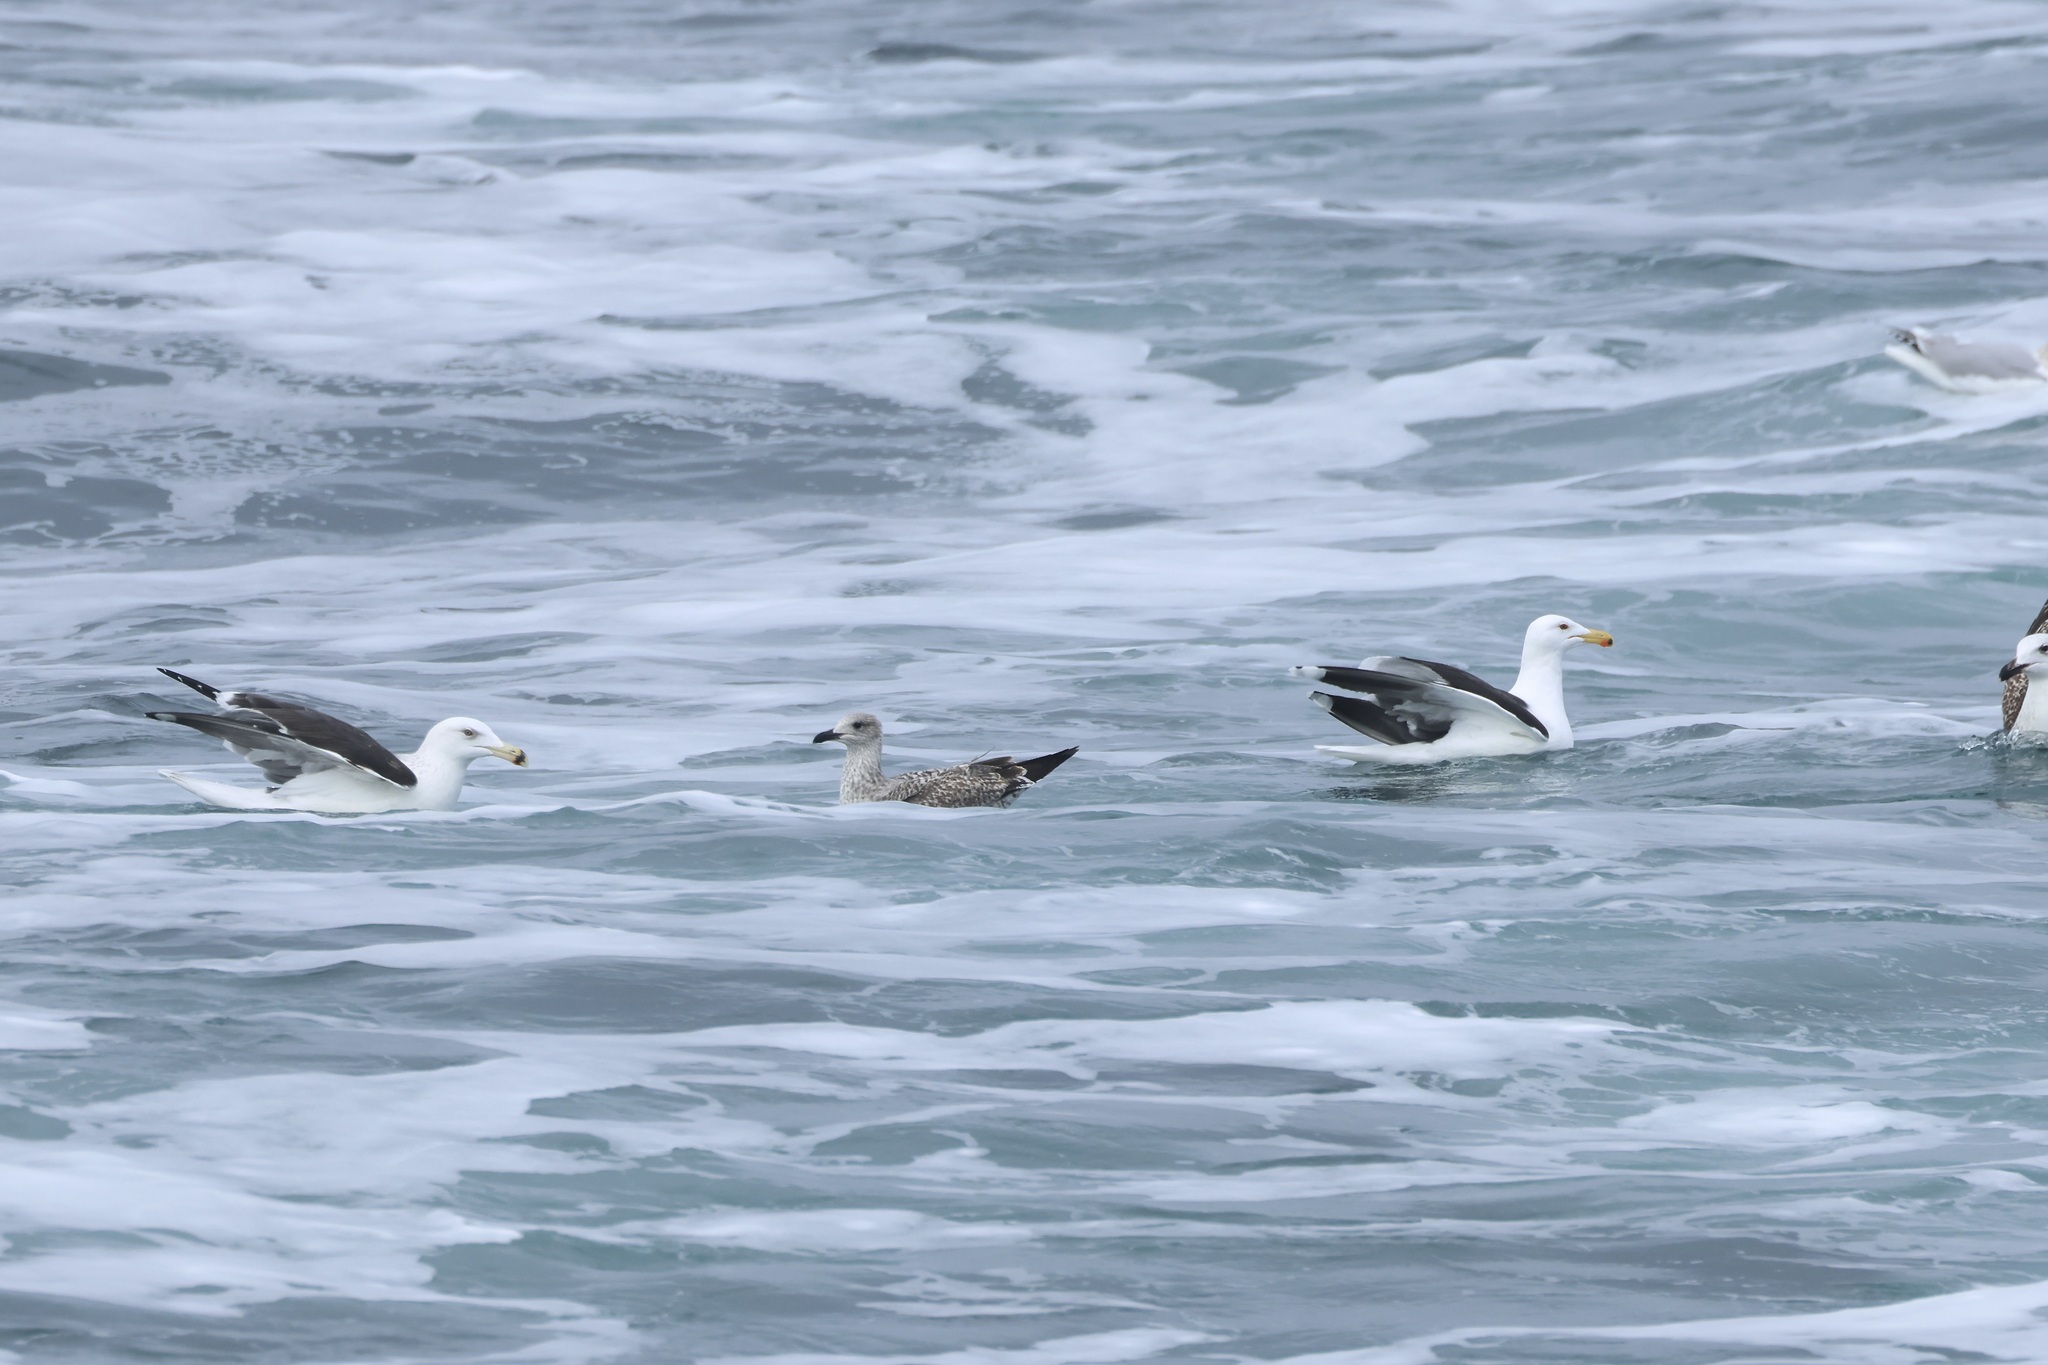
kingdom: Animalia
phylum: Chordata
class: Aves
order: Charadriiformes
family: Laridae
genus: Larus
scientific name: Larus fuscus
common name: Lesser black-backed gull
